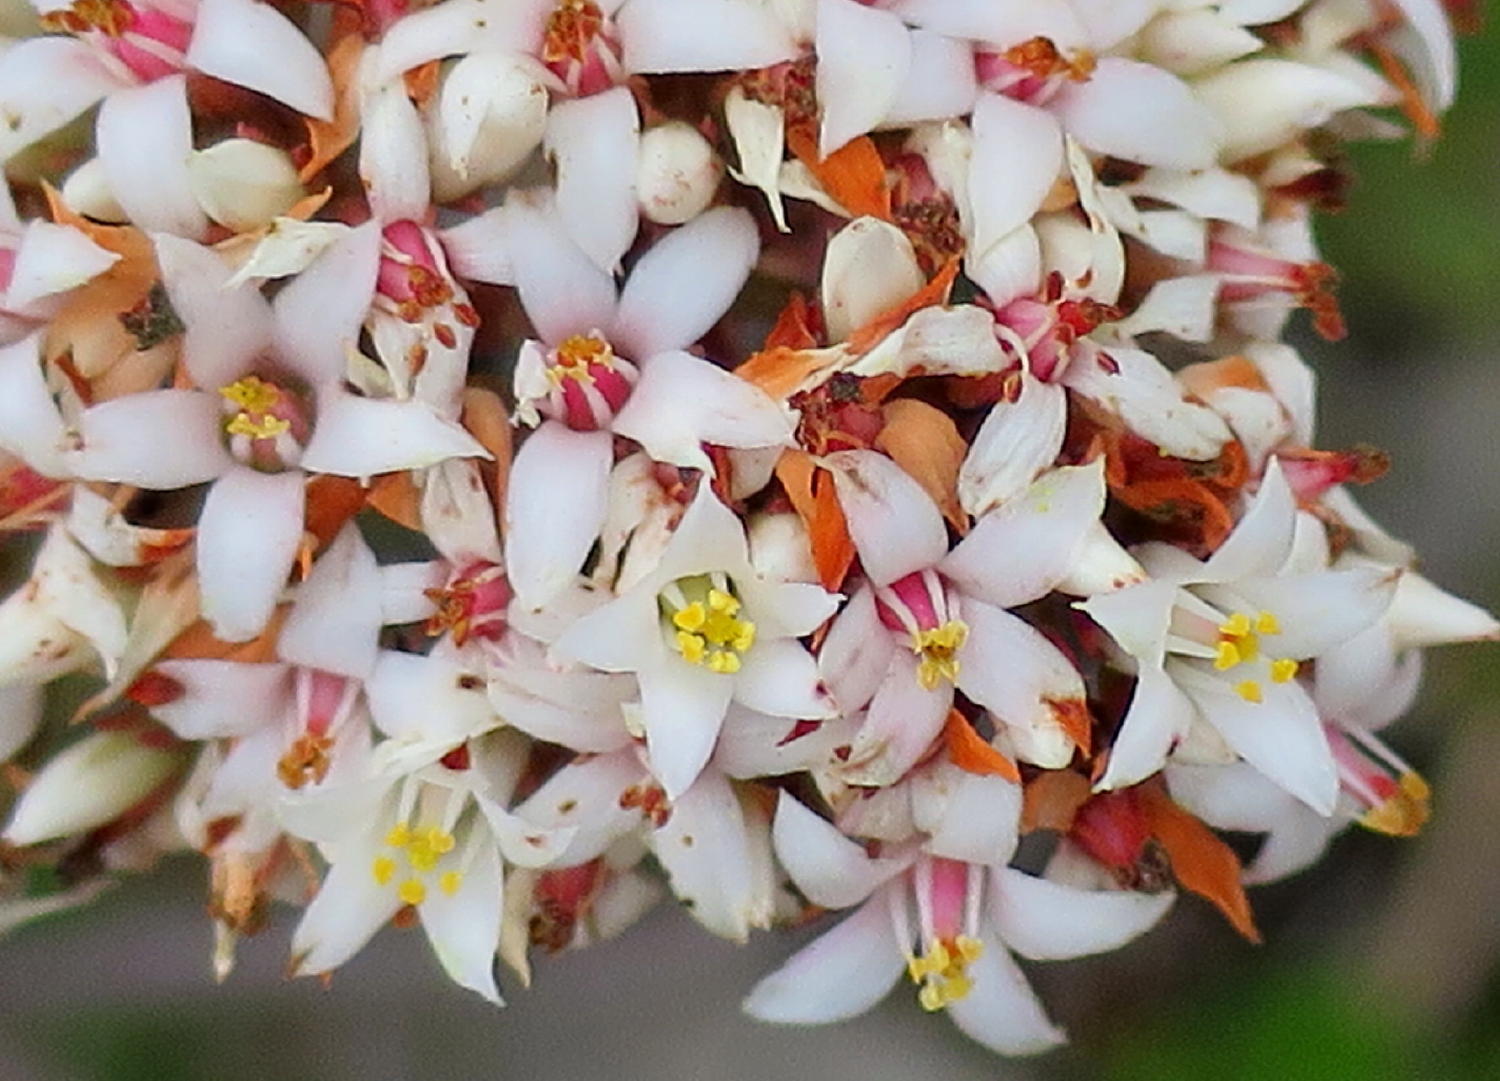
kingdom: Plantae
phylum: Tracheophyta
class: Magnoliopsida
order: Saxifragales
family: Crassulaceae
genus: Crassula
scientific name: Crassula rubricaulis
